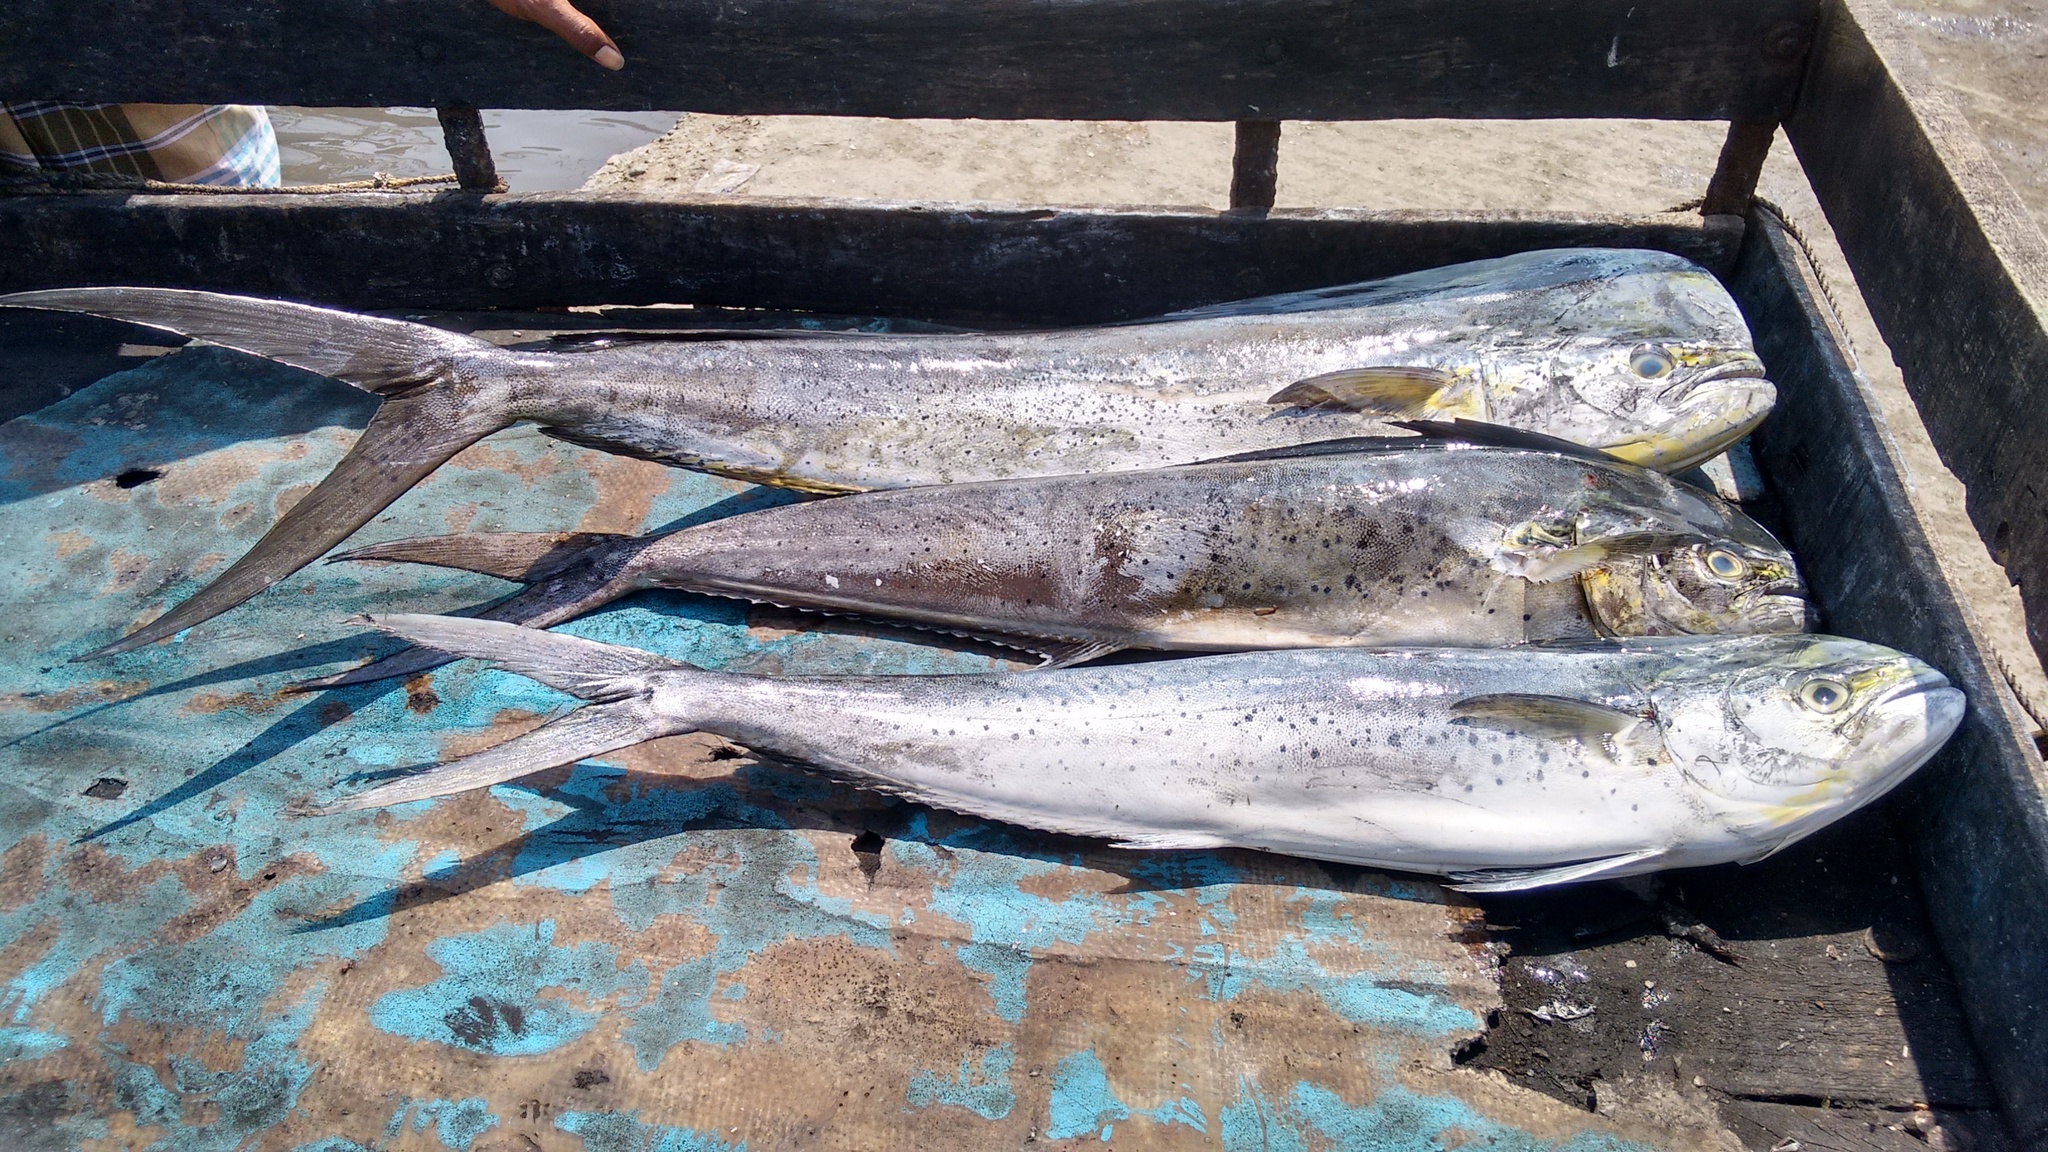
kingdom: Animalia
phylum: Chordata
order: Perciformes
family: Coryphaenidae
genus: Coryphaena
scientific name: Coryphaena hippurus
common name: Dolphin
